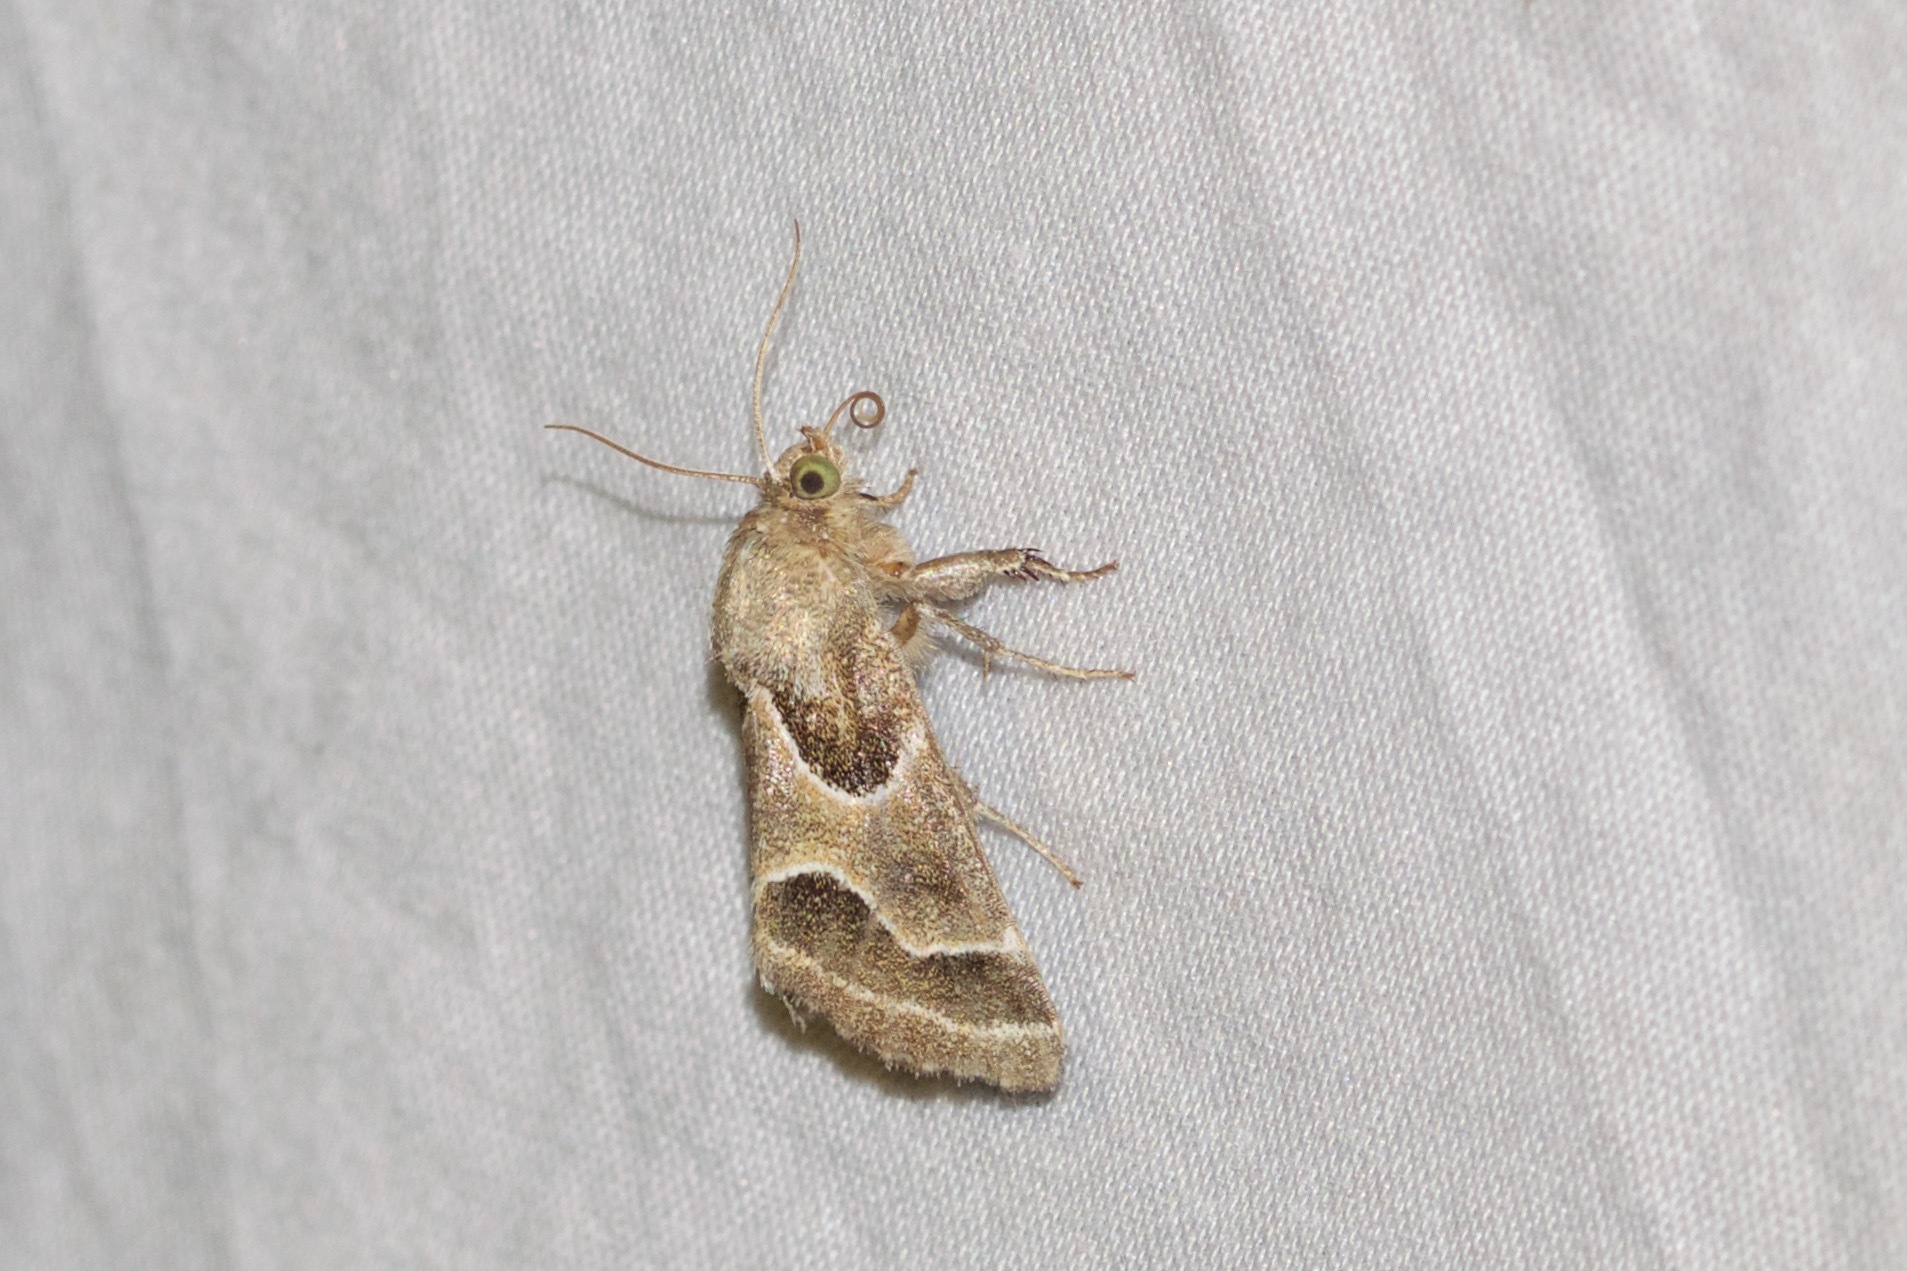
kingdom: Animalia
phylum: Arthropoda
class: Insecta
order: Lepidoptera
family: Noctuidae
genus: Schinia
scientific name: Schinia rivulosa
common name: Scarce meal-moth
